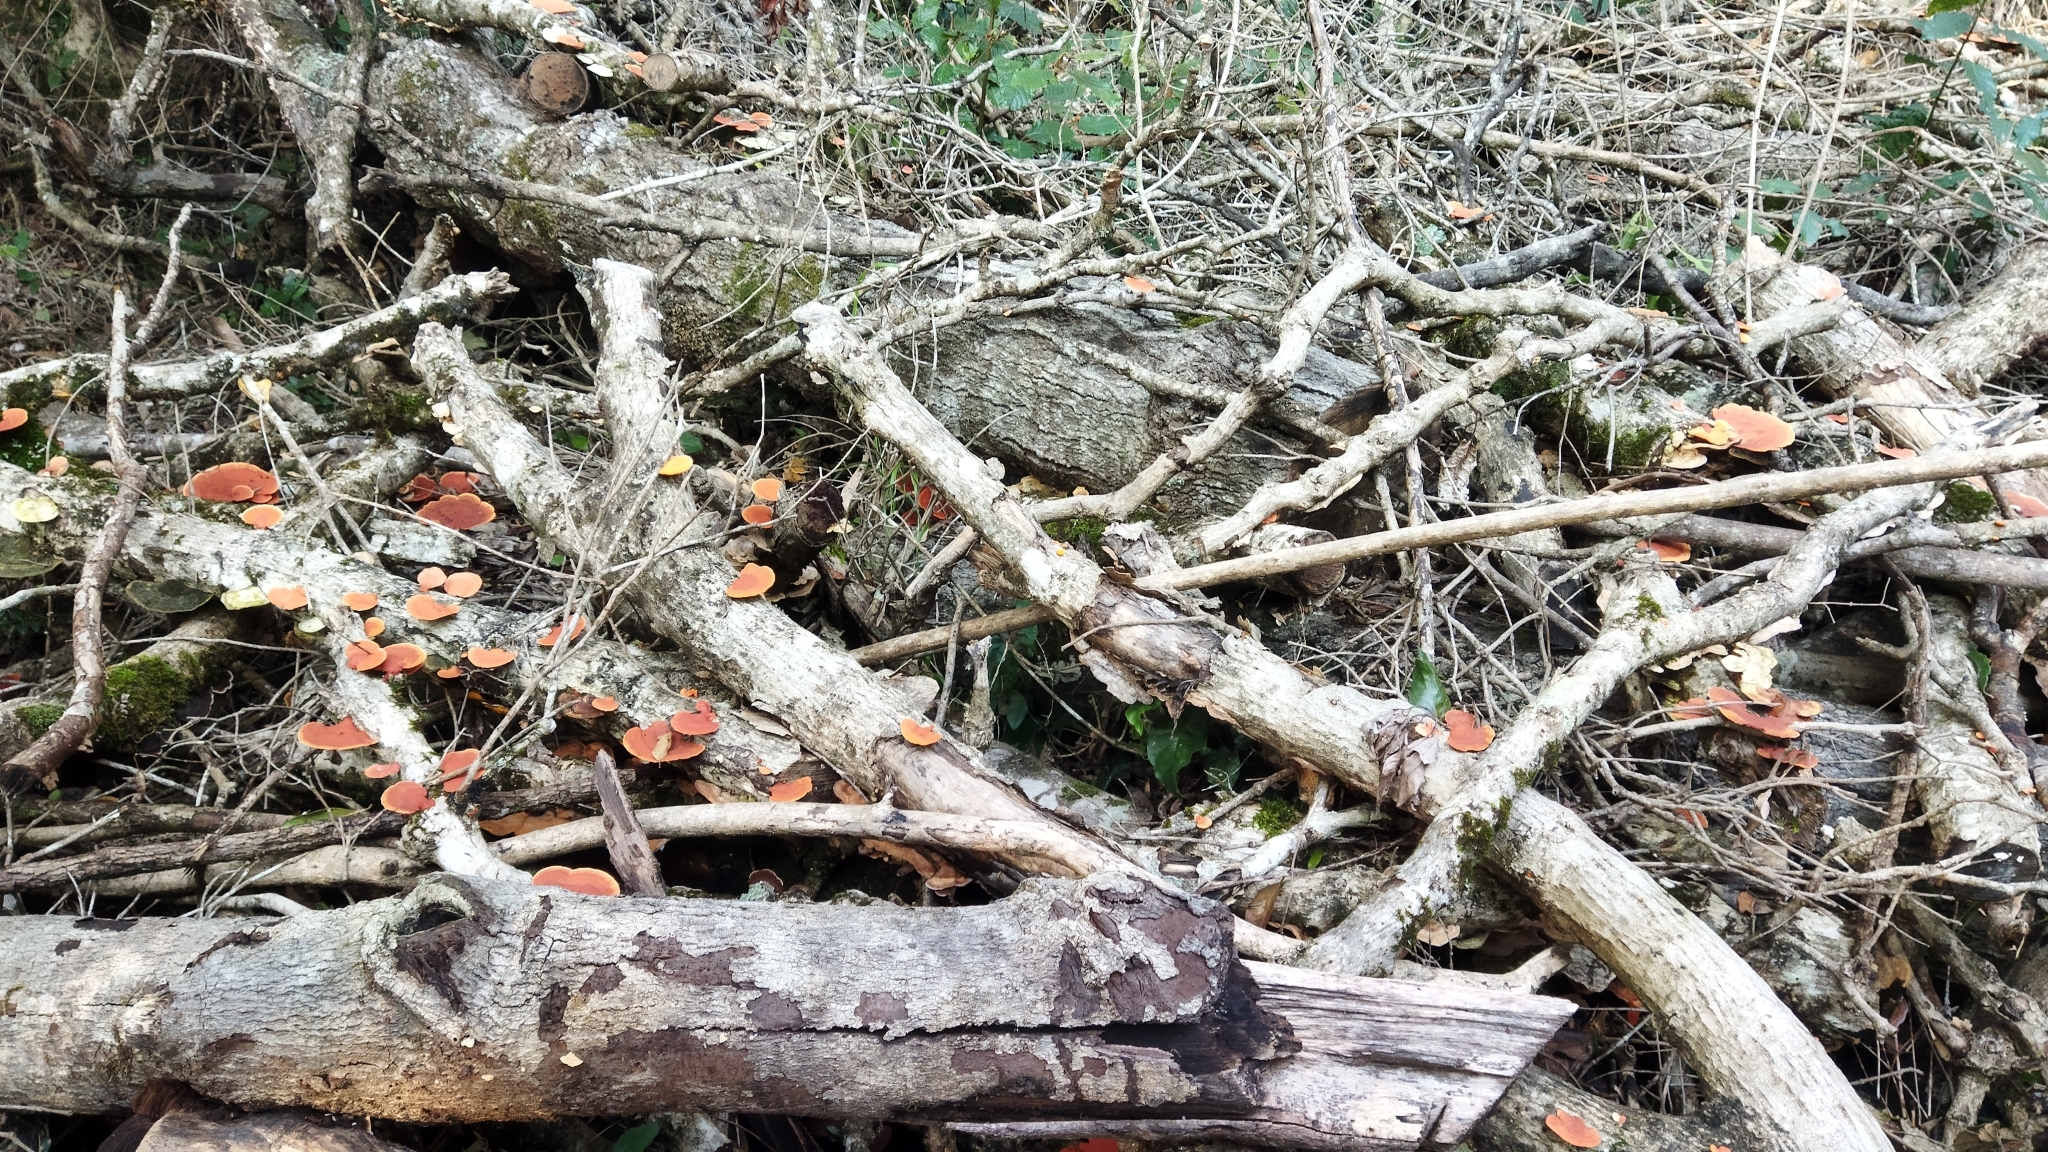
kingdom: Fungi
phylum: Basidiomycota
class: Agaricomycetes
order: Polyporales
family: Polyporaceae
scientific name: Polyporaceae
